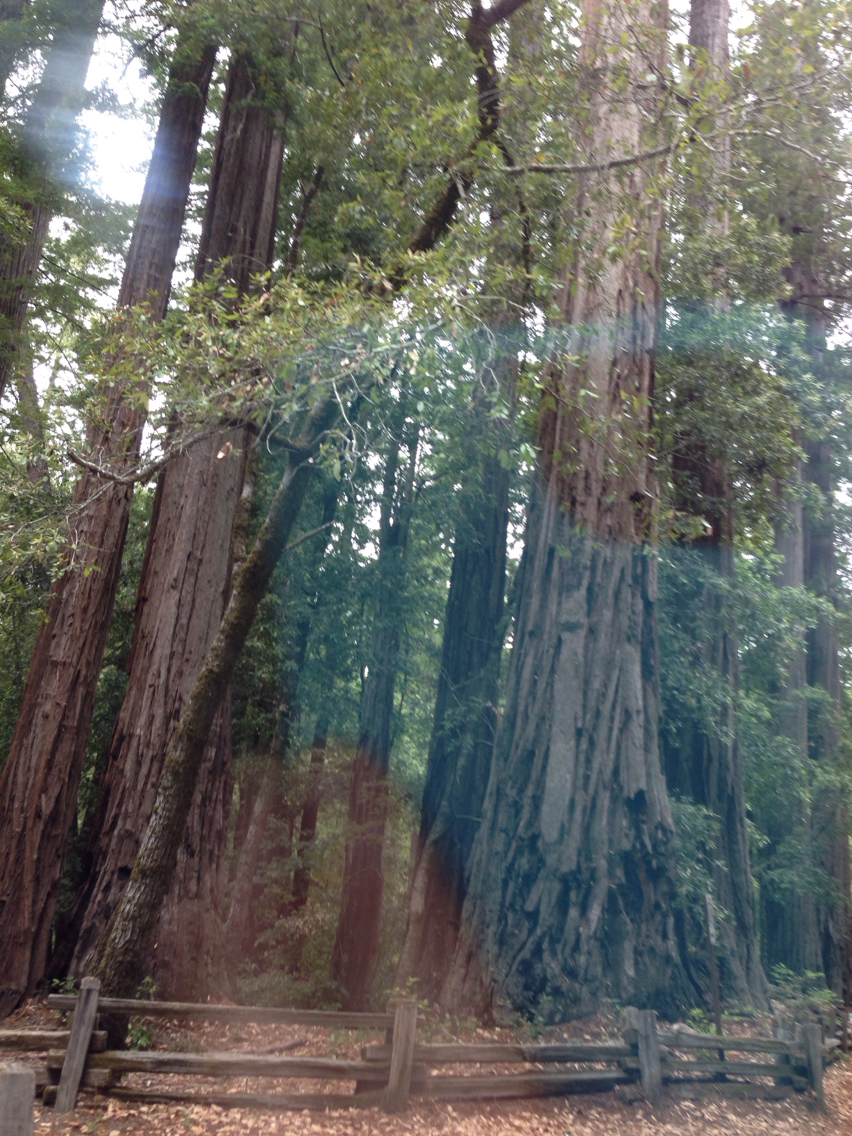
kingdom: Plantae
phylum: Tracheophyta
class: Pinopsida
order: Pinales
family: Cupressaceae
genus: Sequoia
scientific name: Sequoia sempervirens
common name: Coast redwood
